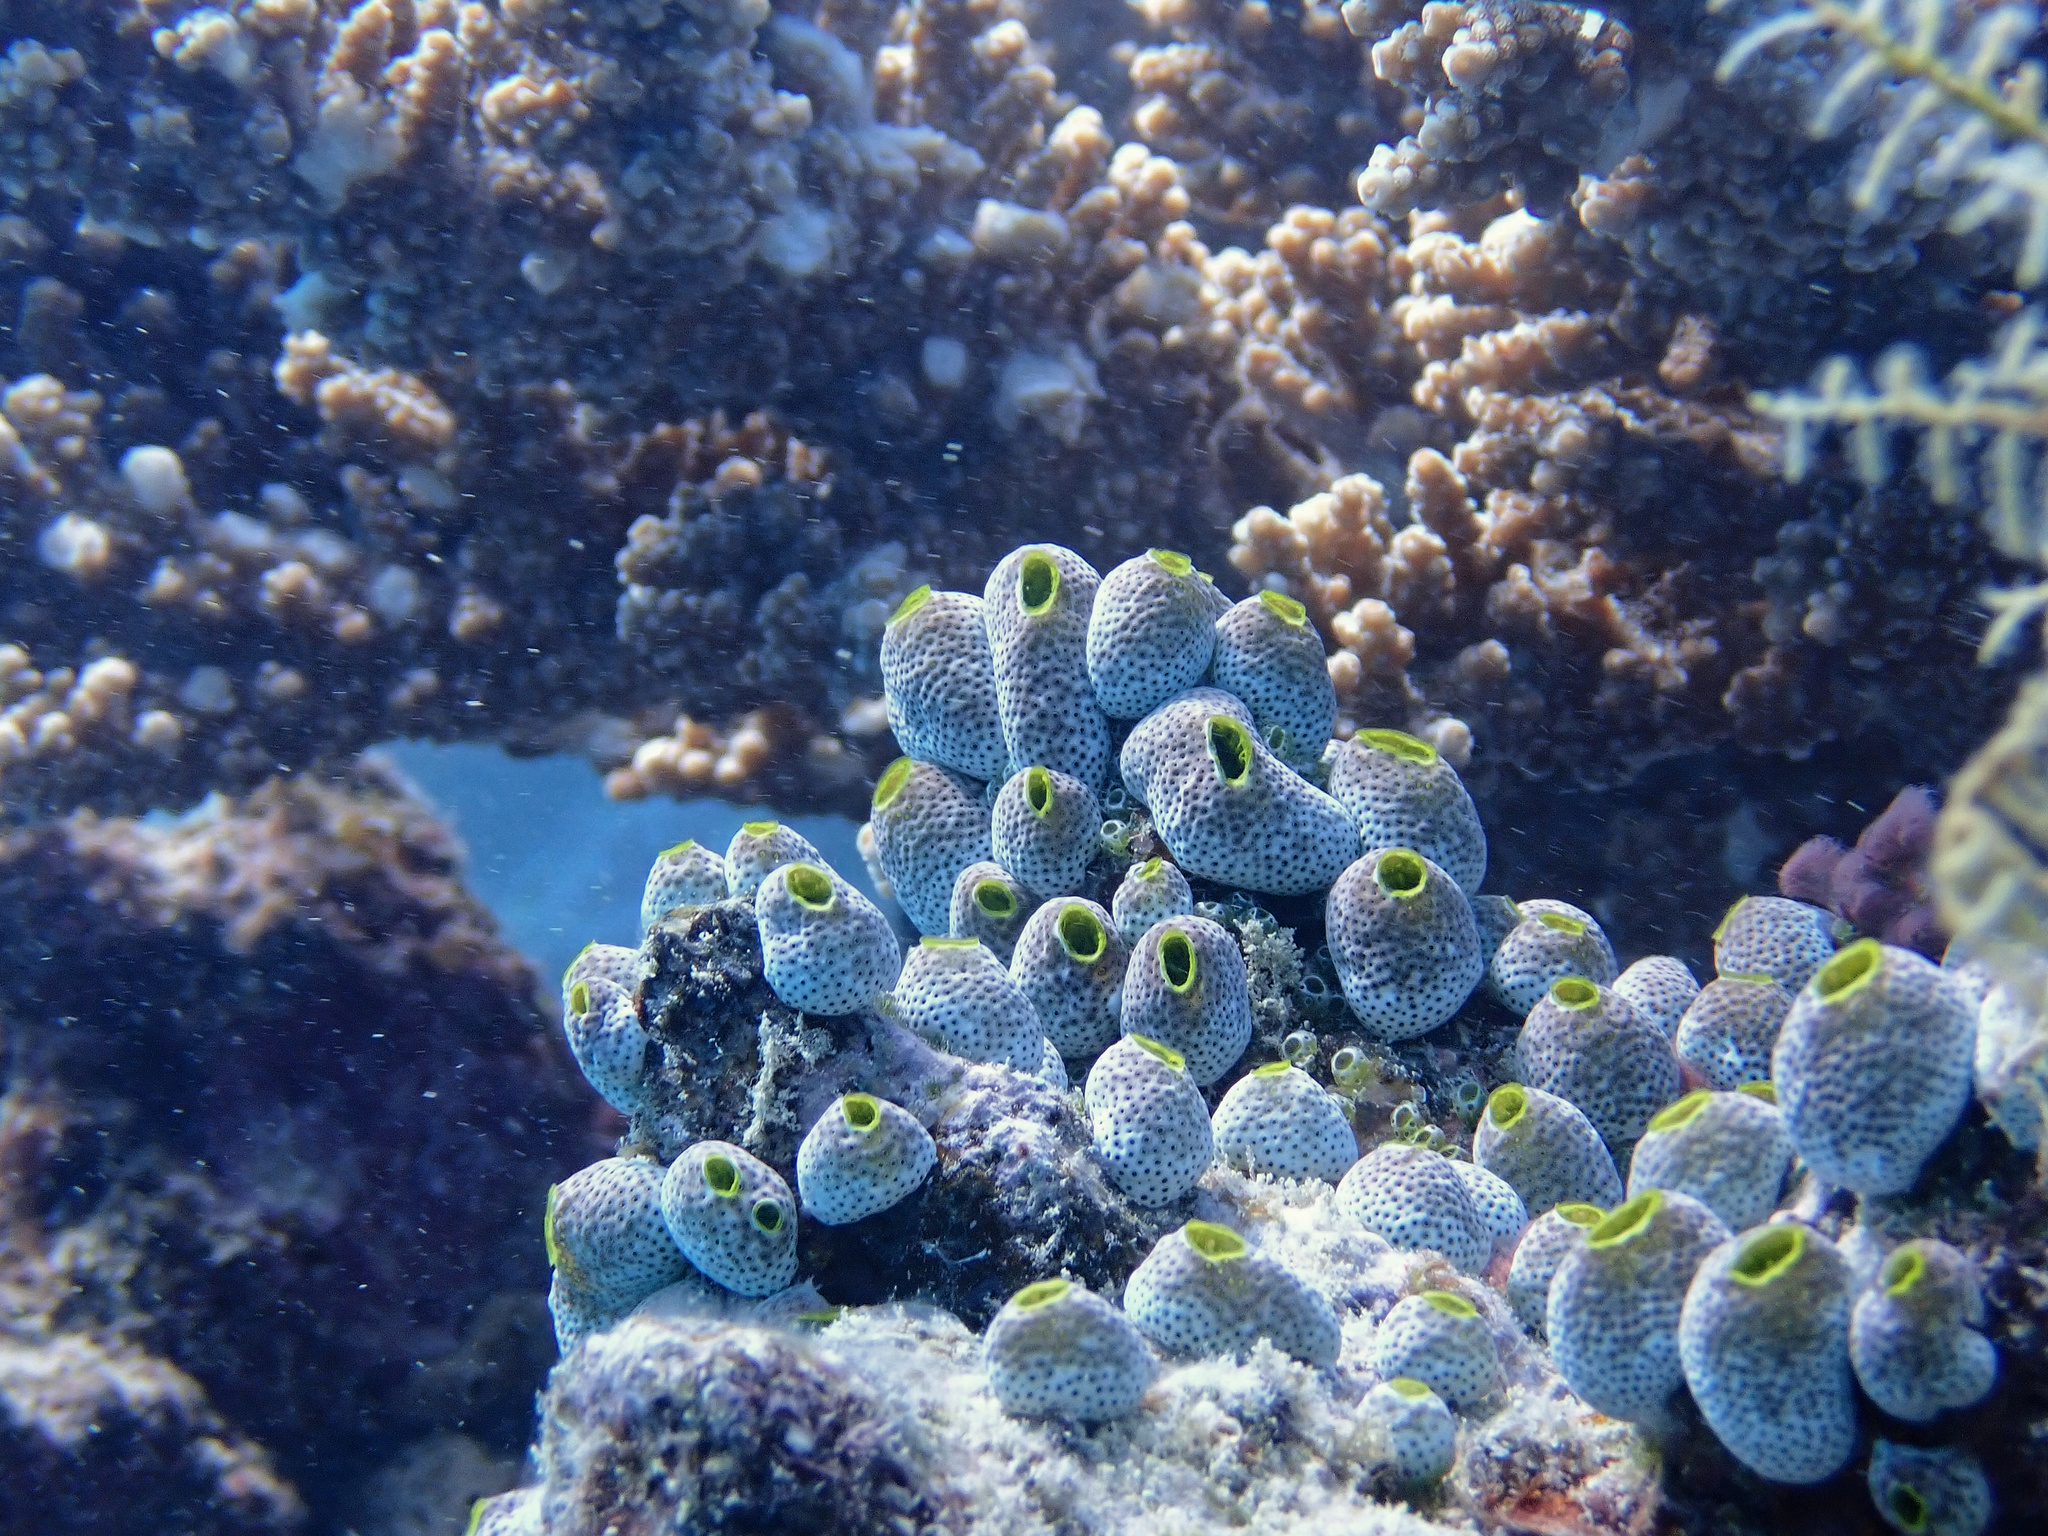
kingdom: Animalia
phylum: Chordata
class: Ascidiacea
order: Aplousobranchia
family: Didemnidae
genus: Didemnum
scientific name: Didemnum molle
